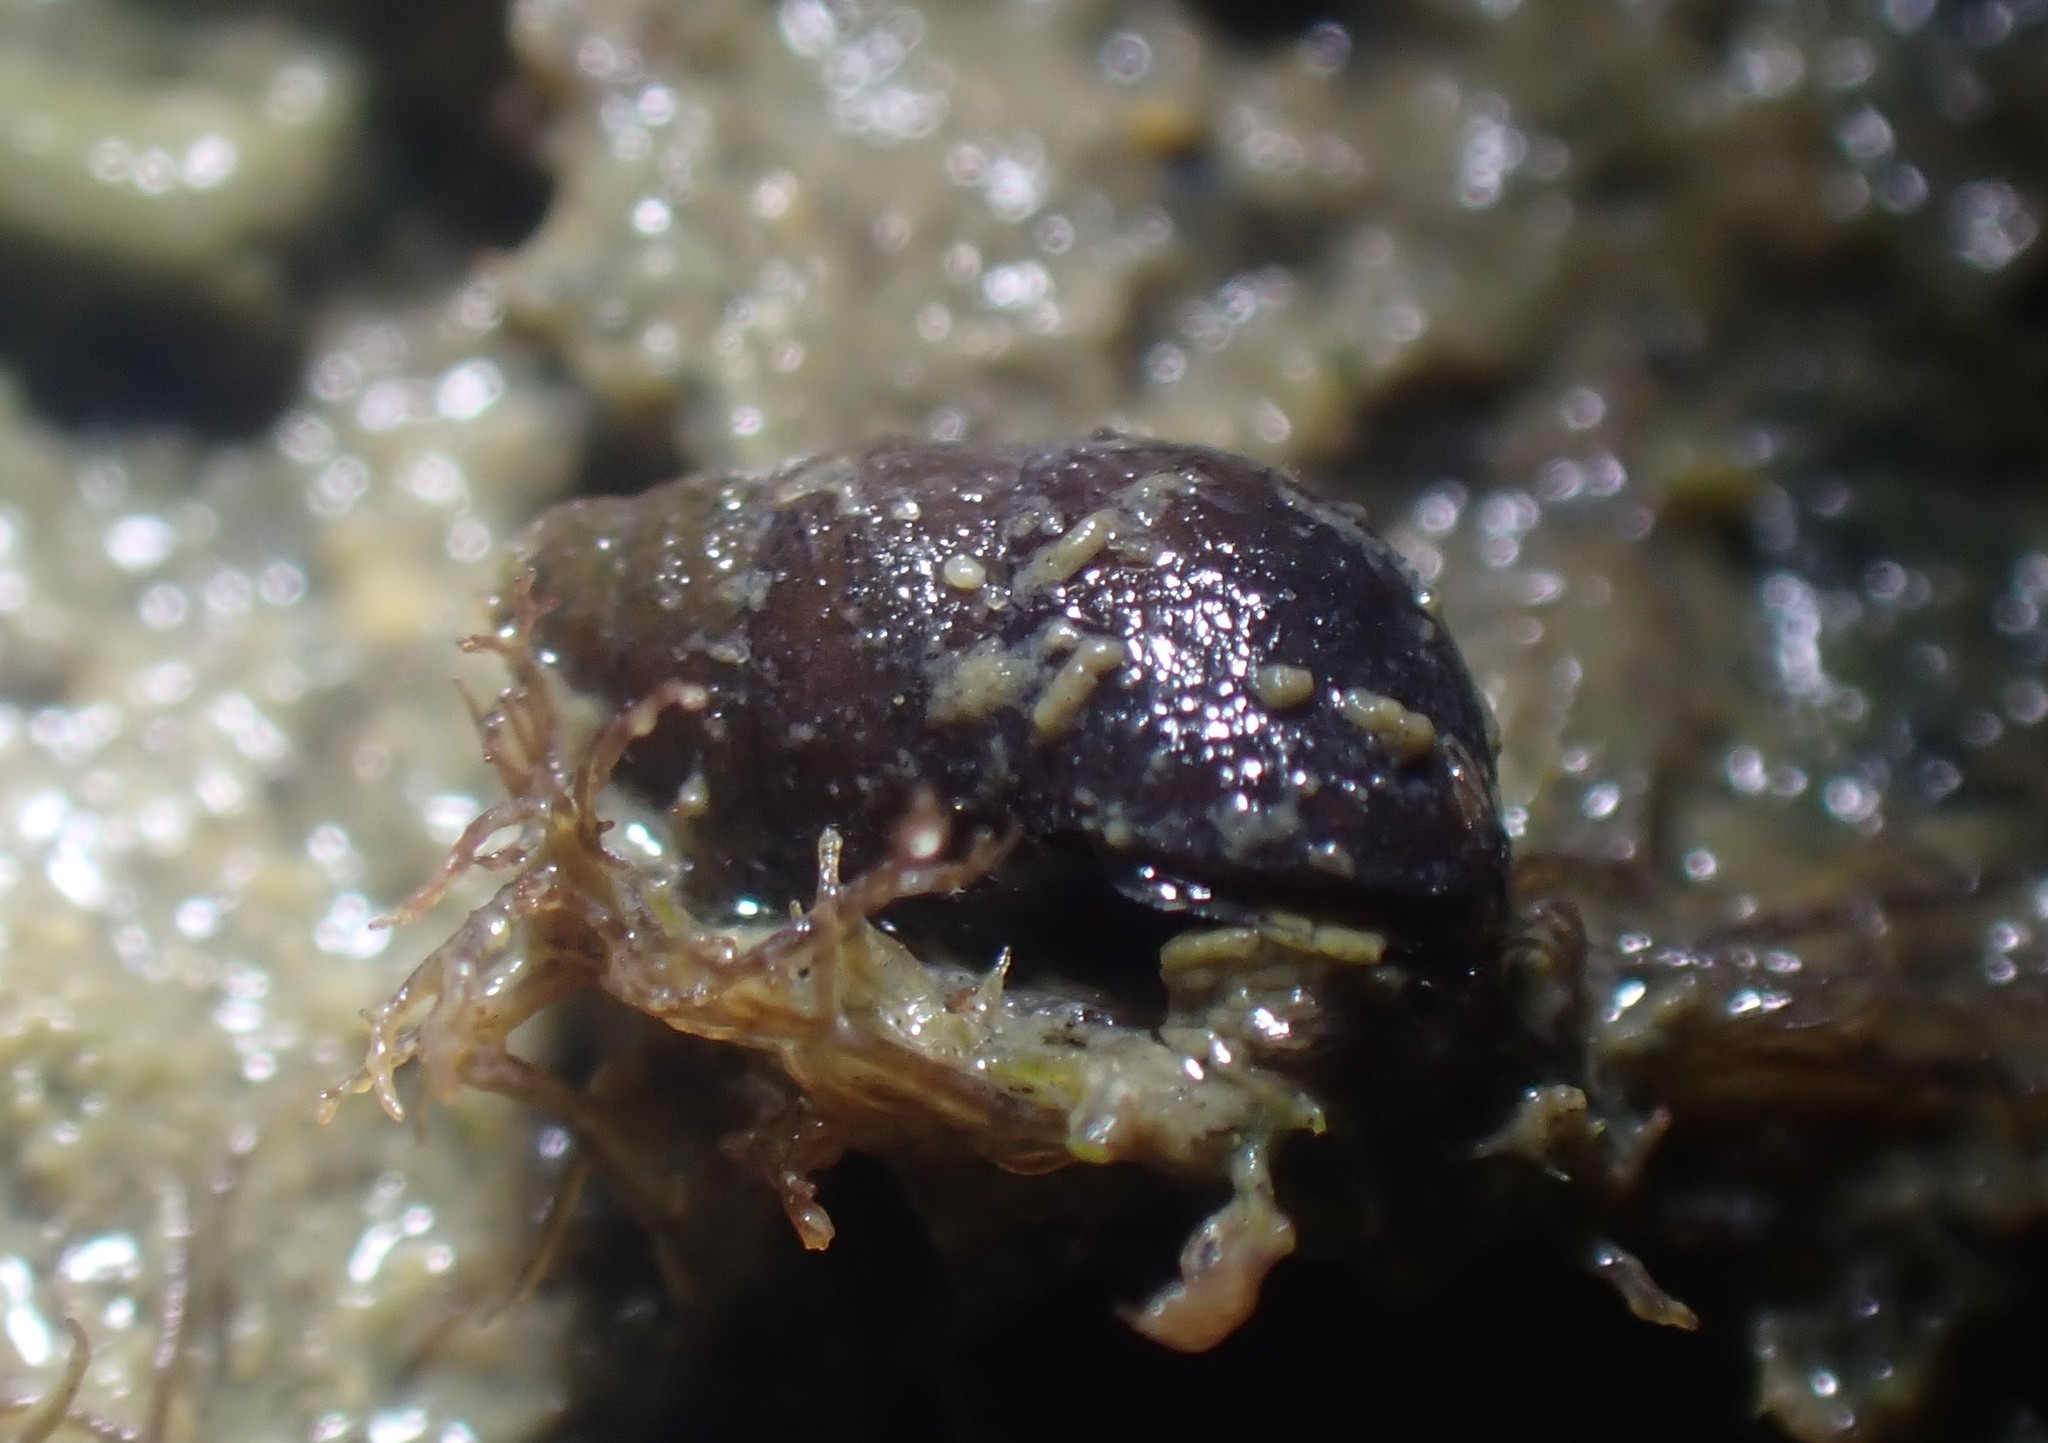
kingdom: Animalia
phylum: Mollusca
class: Gastropoda
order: Littorinimorpha
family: Tateidae
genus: Potamopyrgus
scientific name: Potamopyrgus estuarinus
